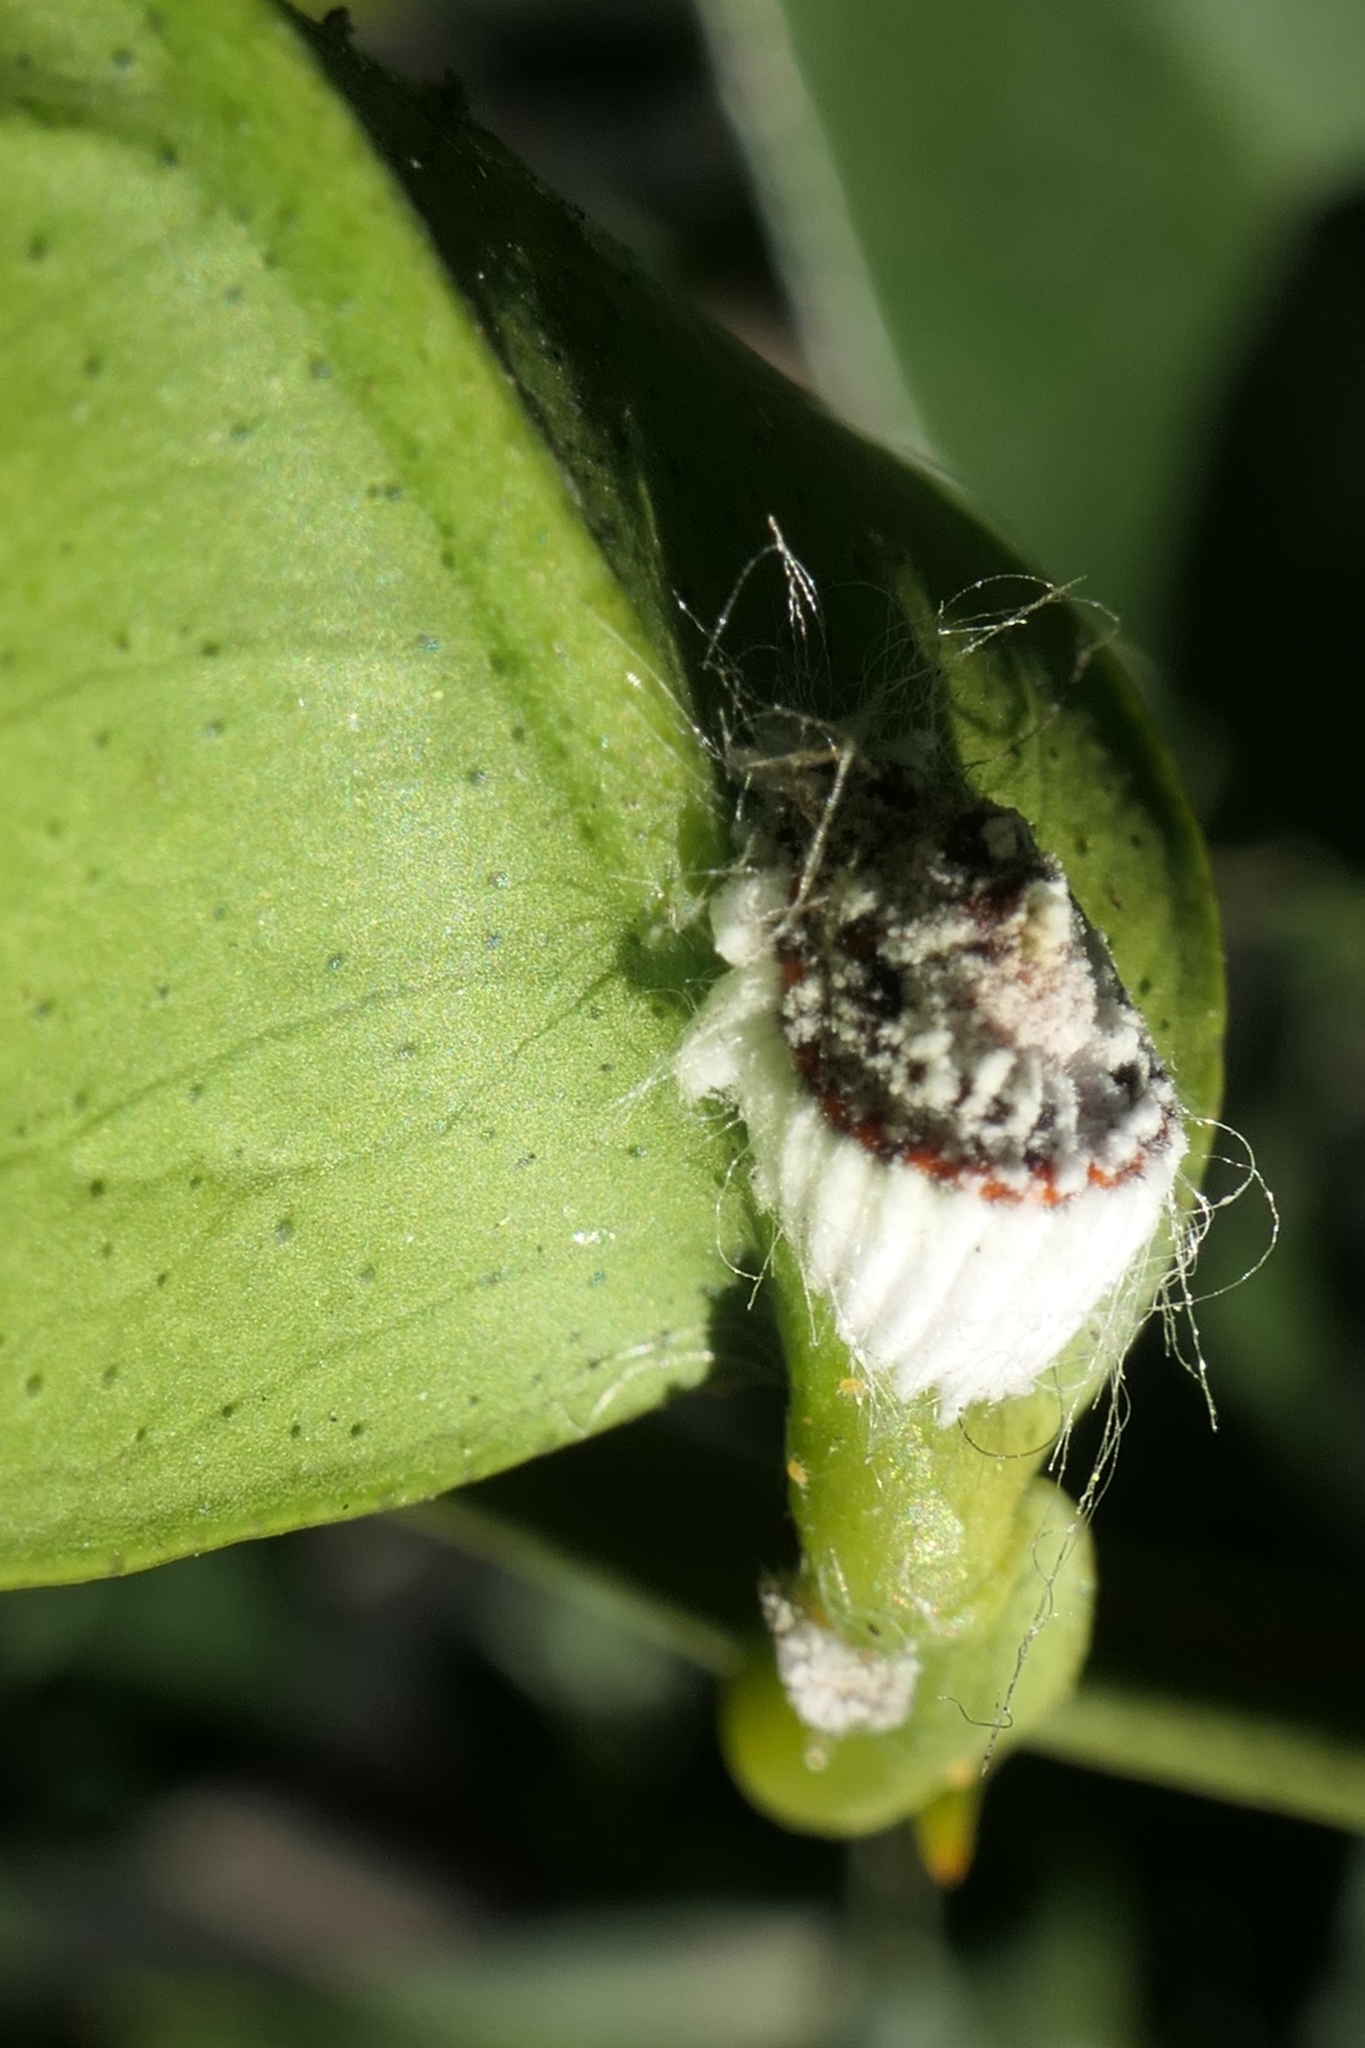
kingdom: Animalia
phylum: Arthropoda
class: Insecta
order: Hemiptera
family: Margarodidae
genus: Icerya
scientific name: Icerya purchasi
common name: Cottony cushion scale
